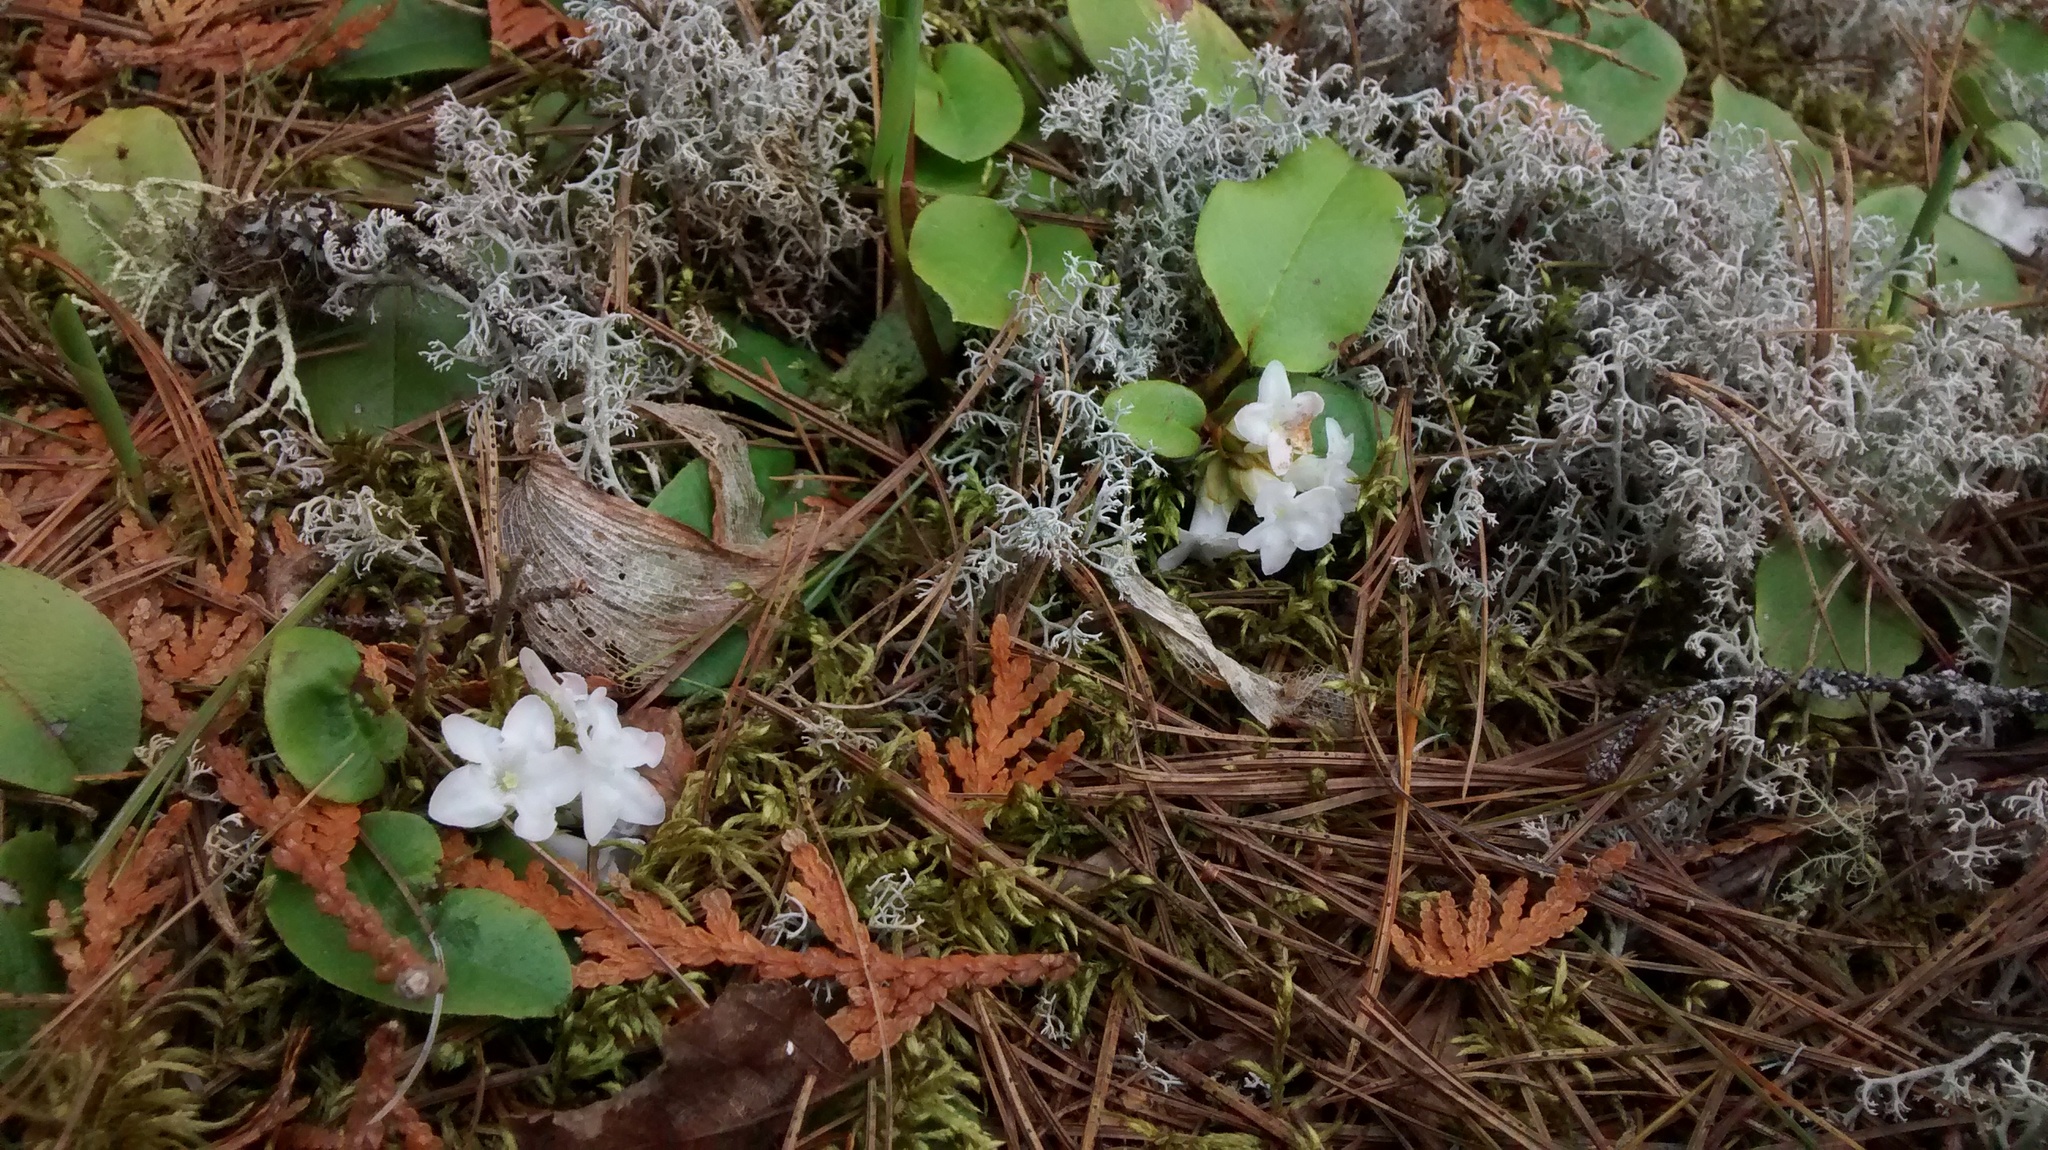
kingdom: Plantae
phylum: Tracheophyta
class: Magnoliopsida
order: Ericales
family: Ericaceae
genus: Epigaea
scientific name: Epigaea repens
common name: Gravelroot
